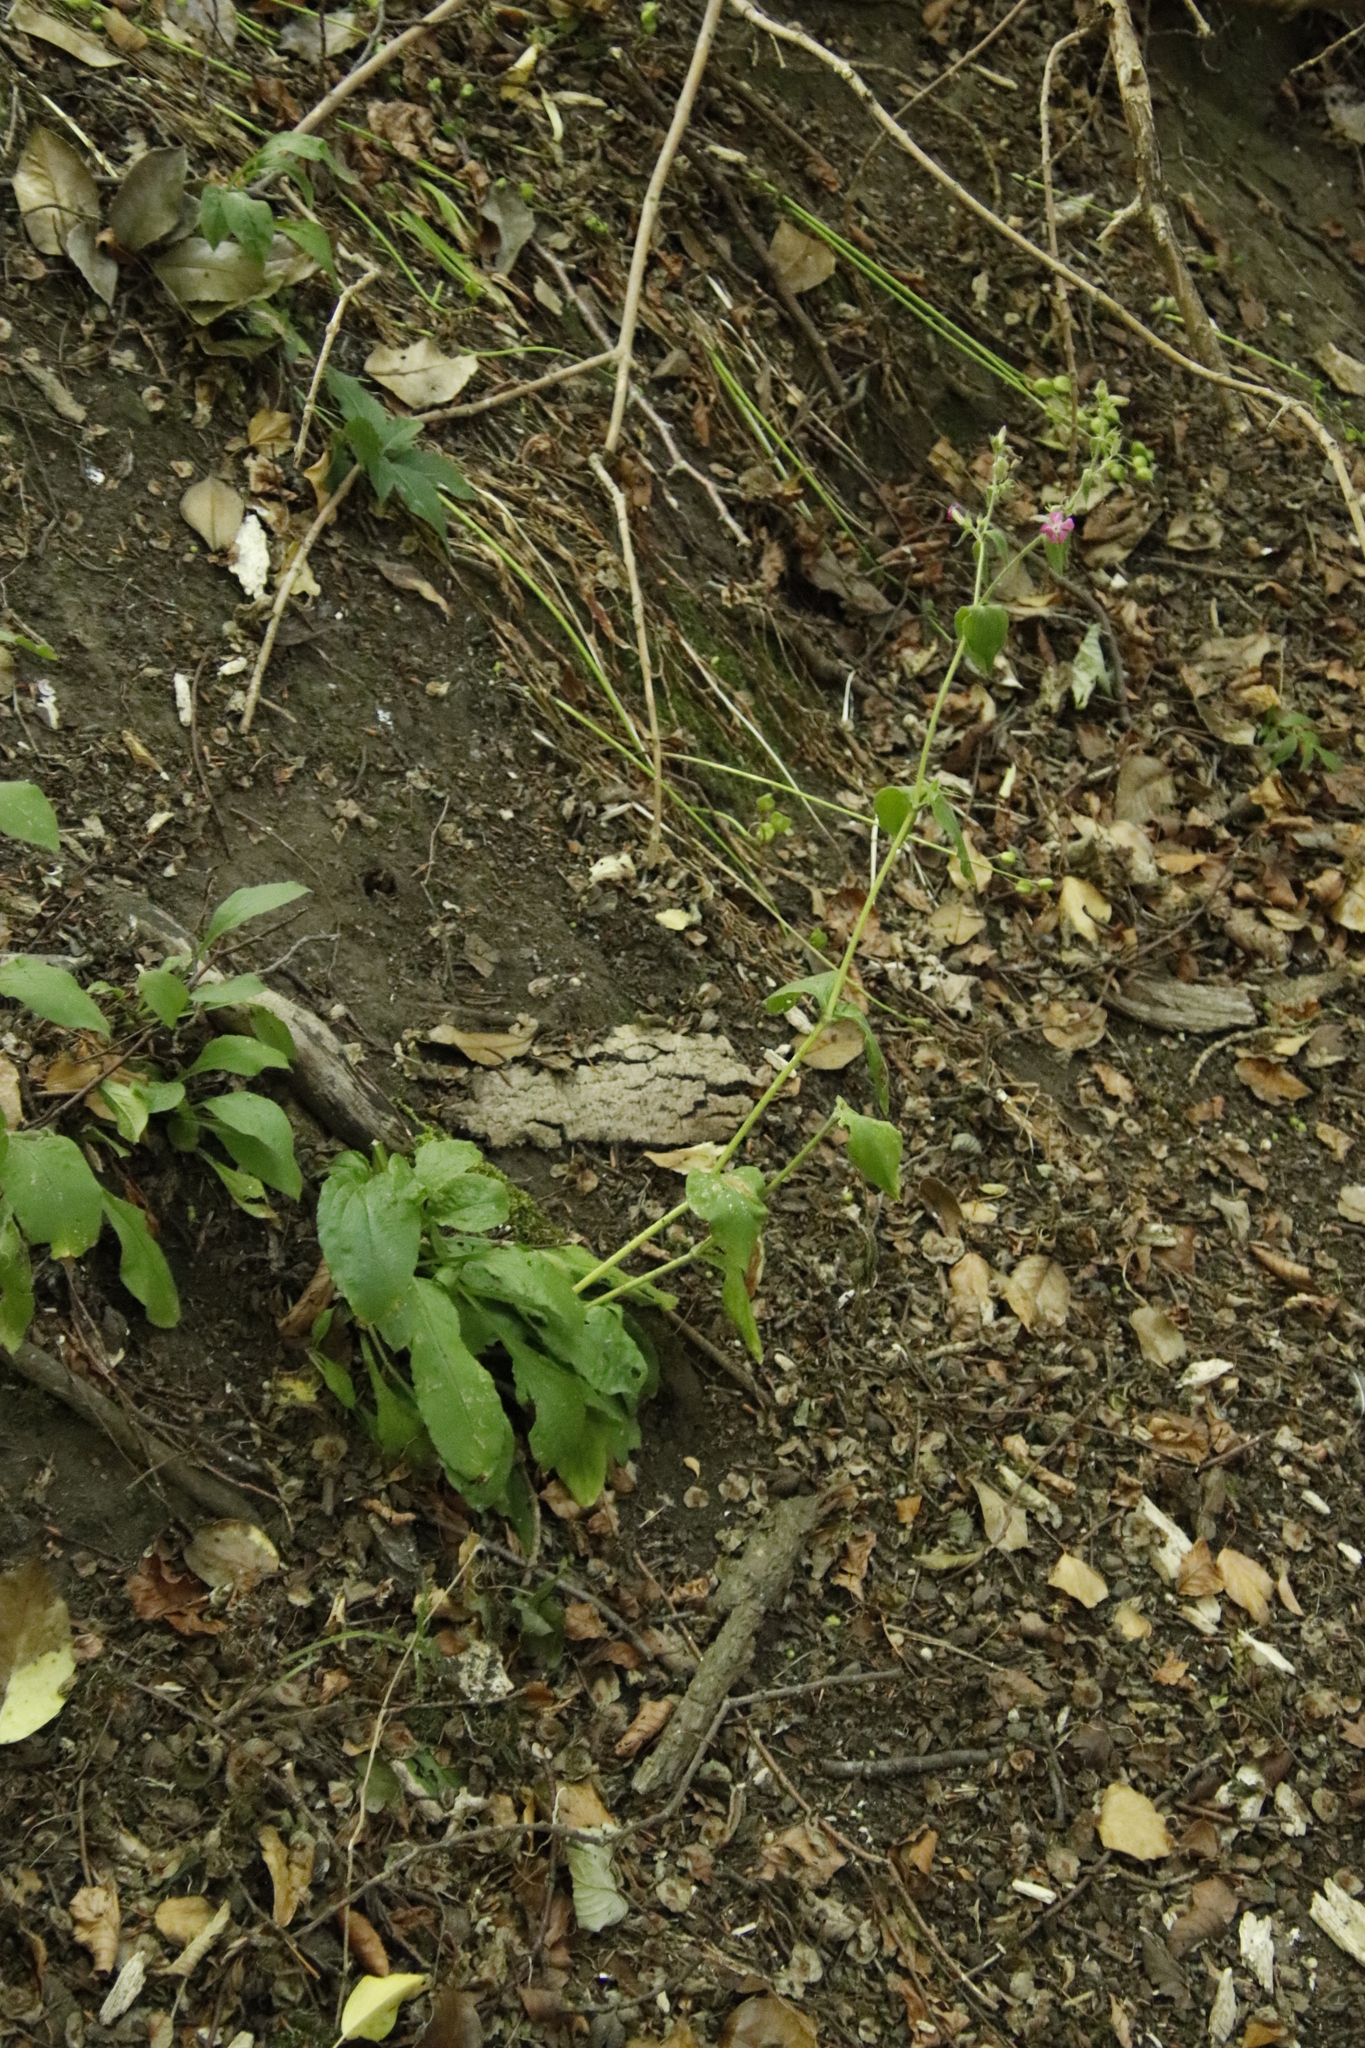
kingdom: Plantae
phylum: Tracheophyta
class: Magnoliopsida
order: Caryophyllales
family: Caryophyllaceae
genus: Silene
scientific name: Silene dioica
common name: Red campion
